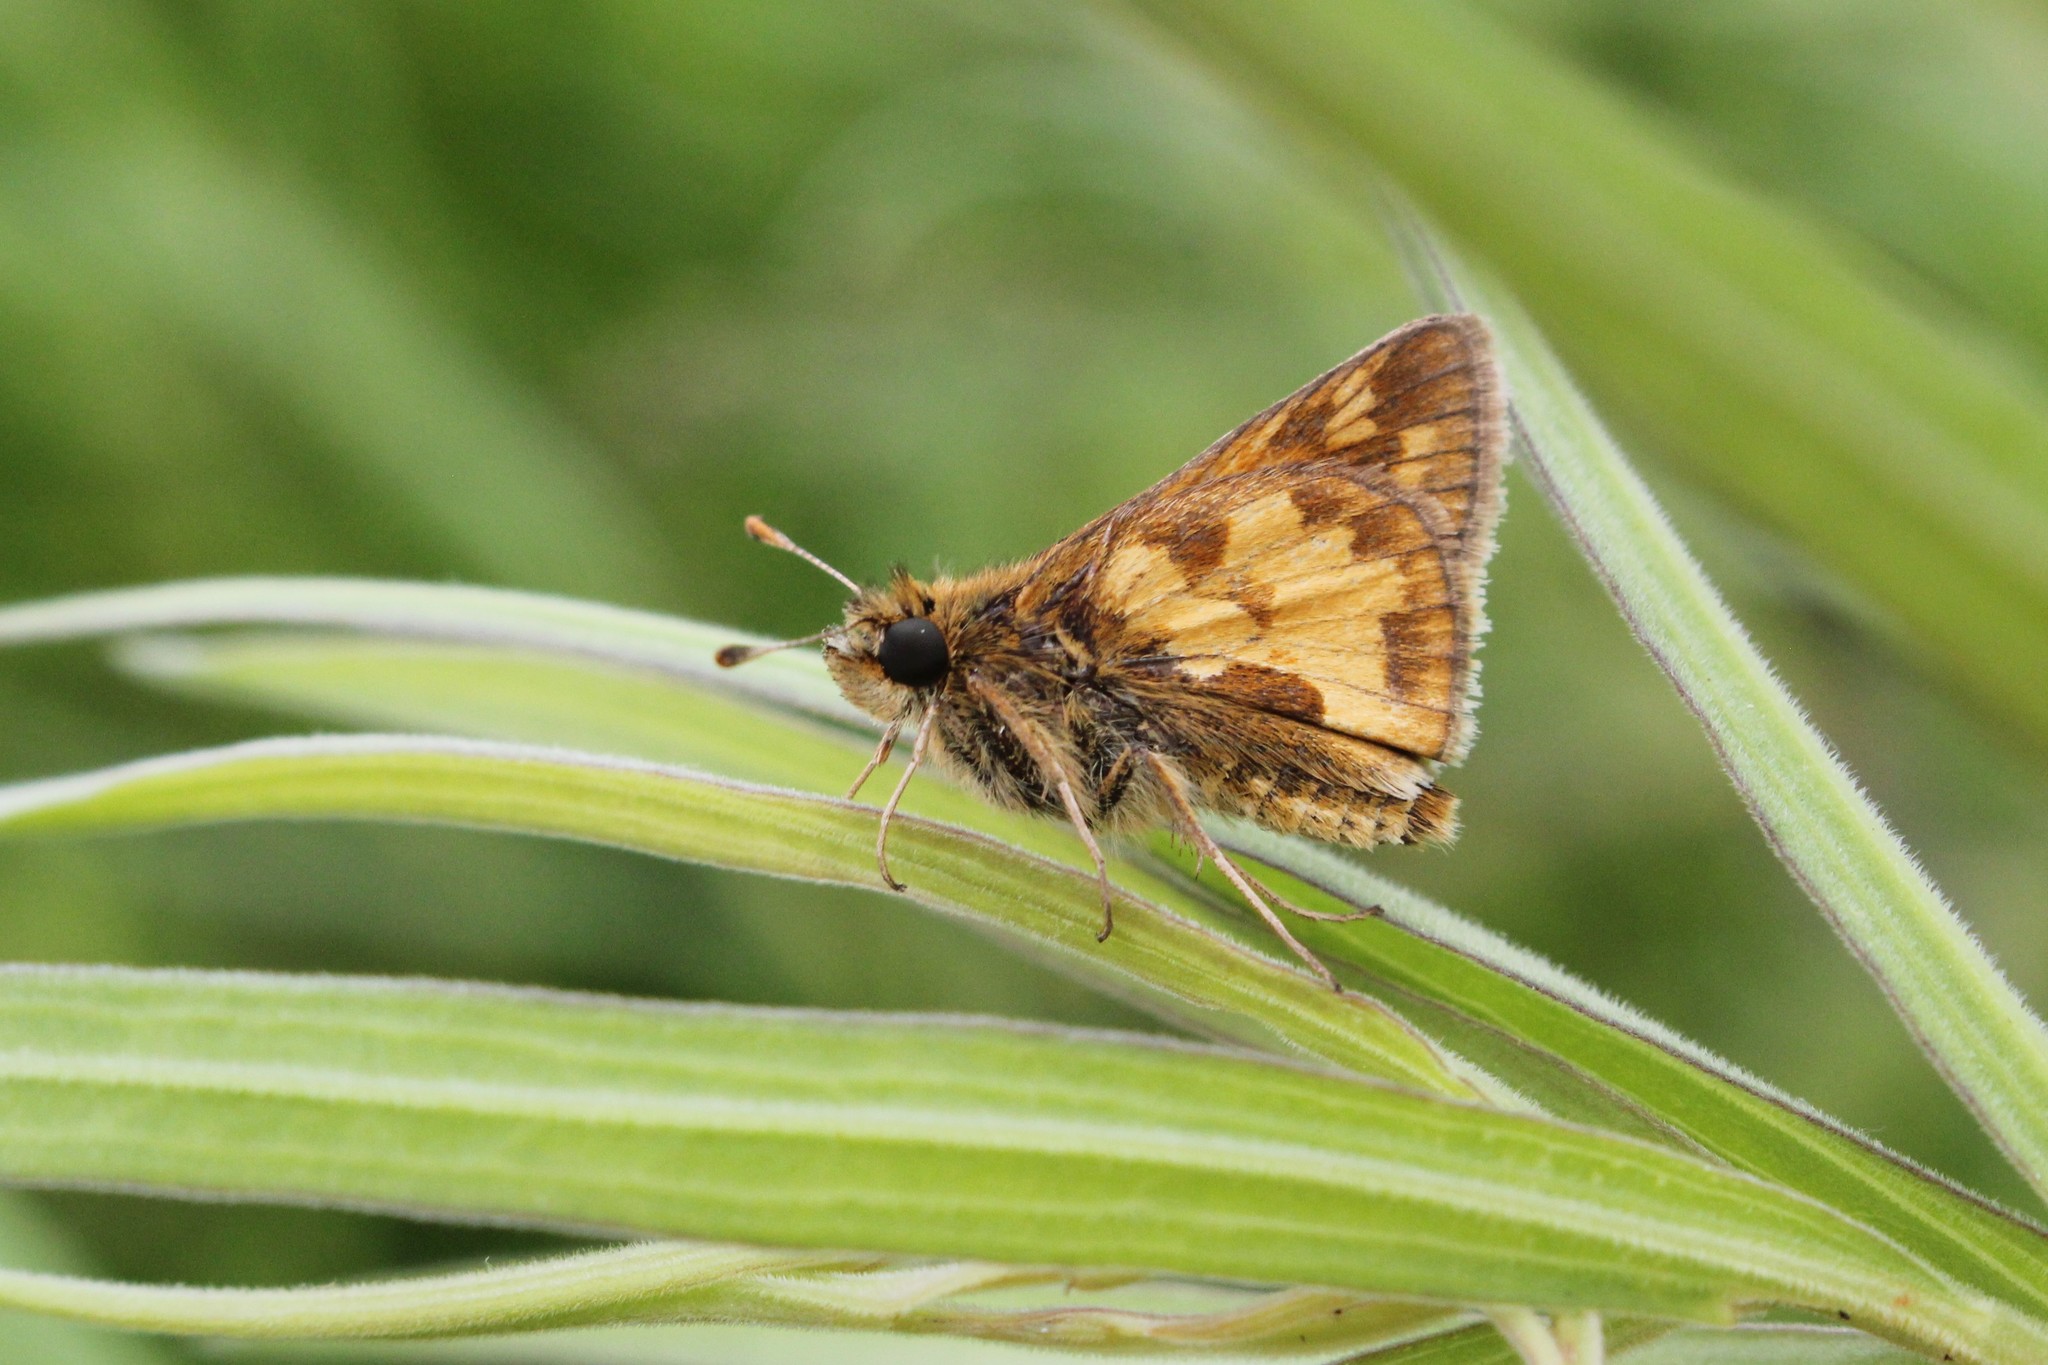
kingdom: Animalia
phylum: Arthropoda
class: Insecta
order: Lepidoptera
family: Hesperiidae
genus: Polites
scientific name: Polites coras
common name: Peck's skipper
